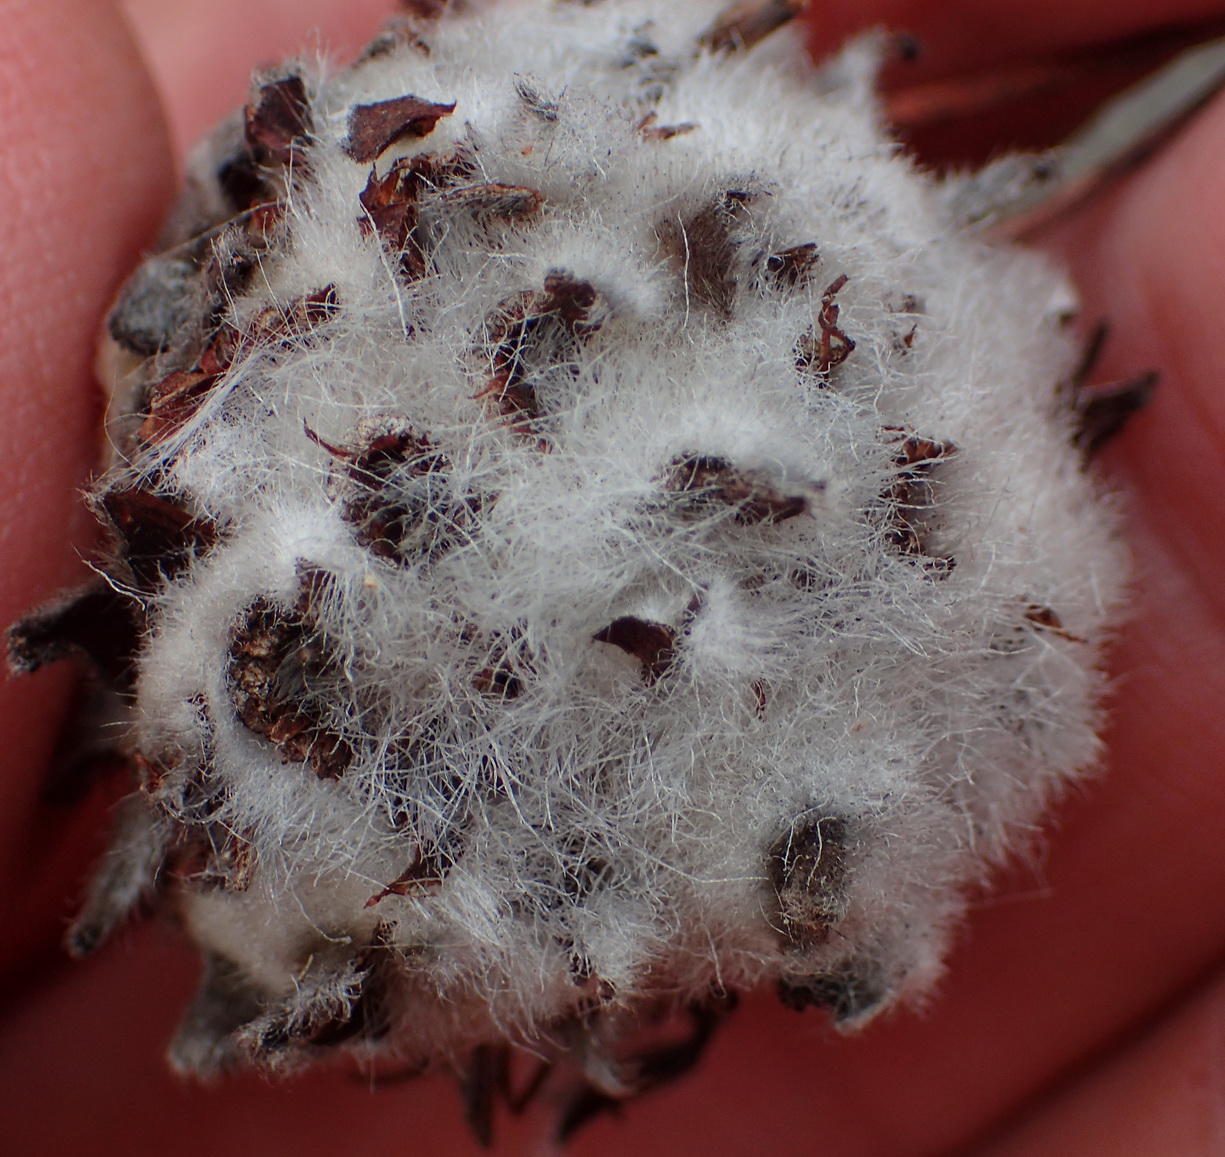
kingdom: Plantae
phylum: Tracheophyta
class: Magnoliopsida
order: Proteales
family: Proteaceae
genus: Leucospermum
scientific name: Leucospermum praecox
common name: Mossel bay pincushion
